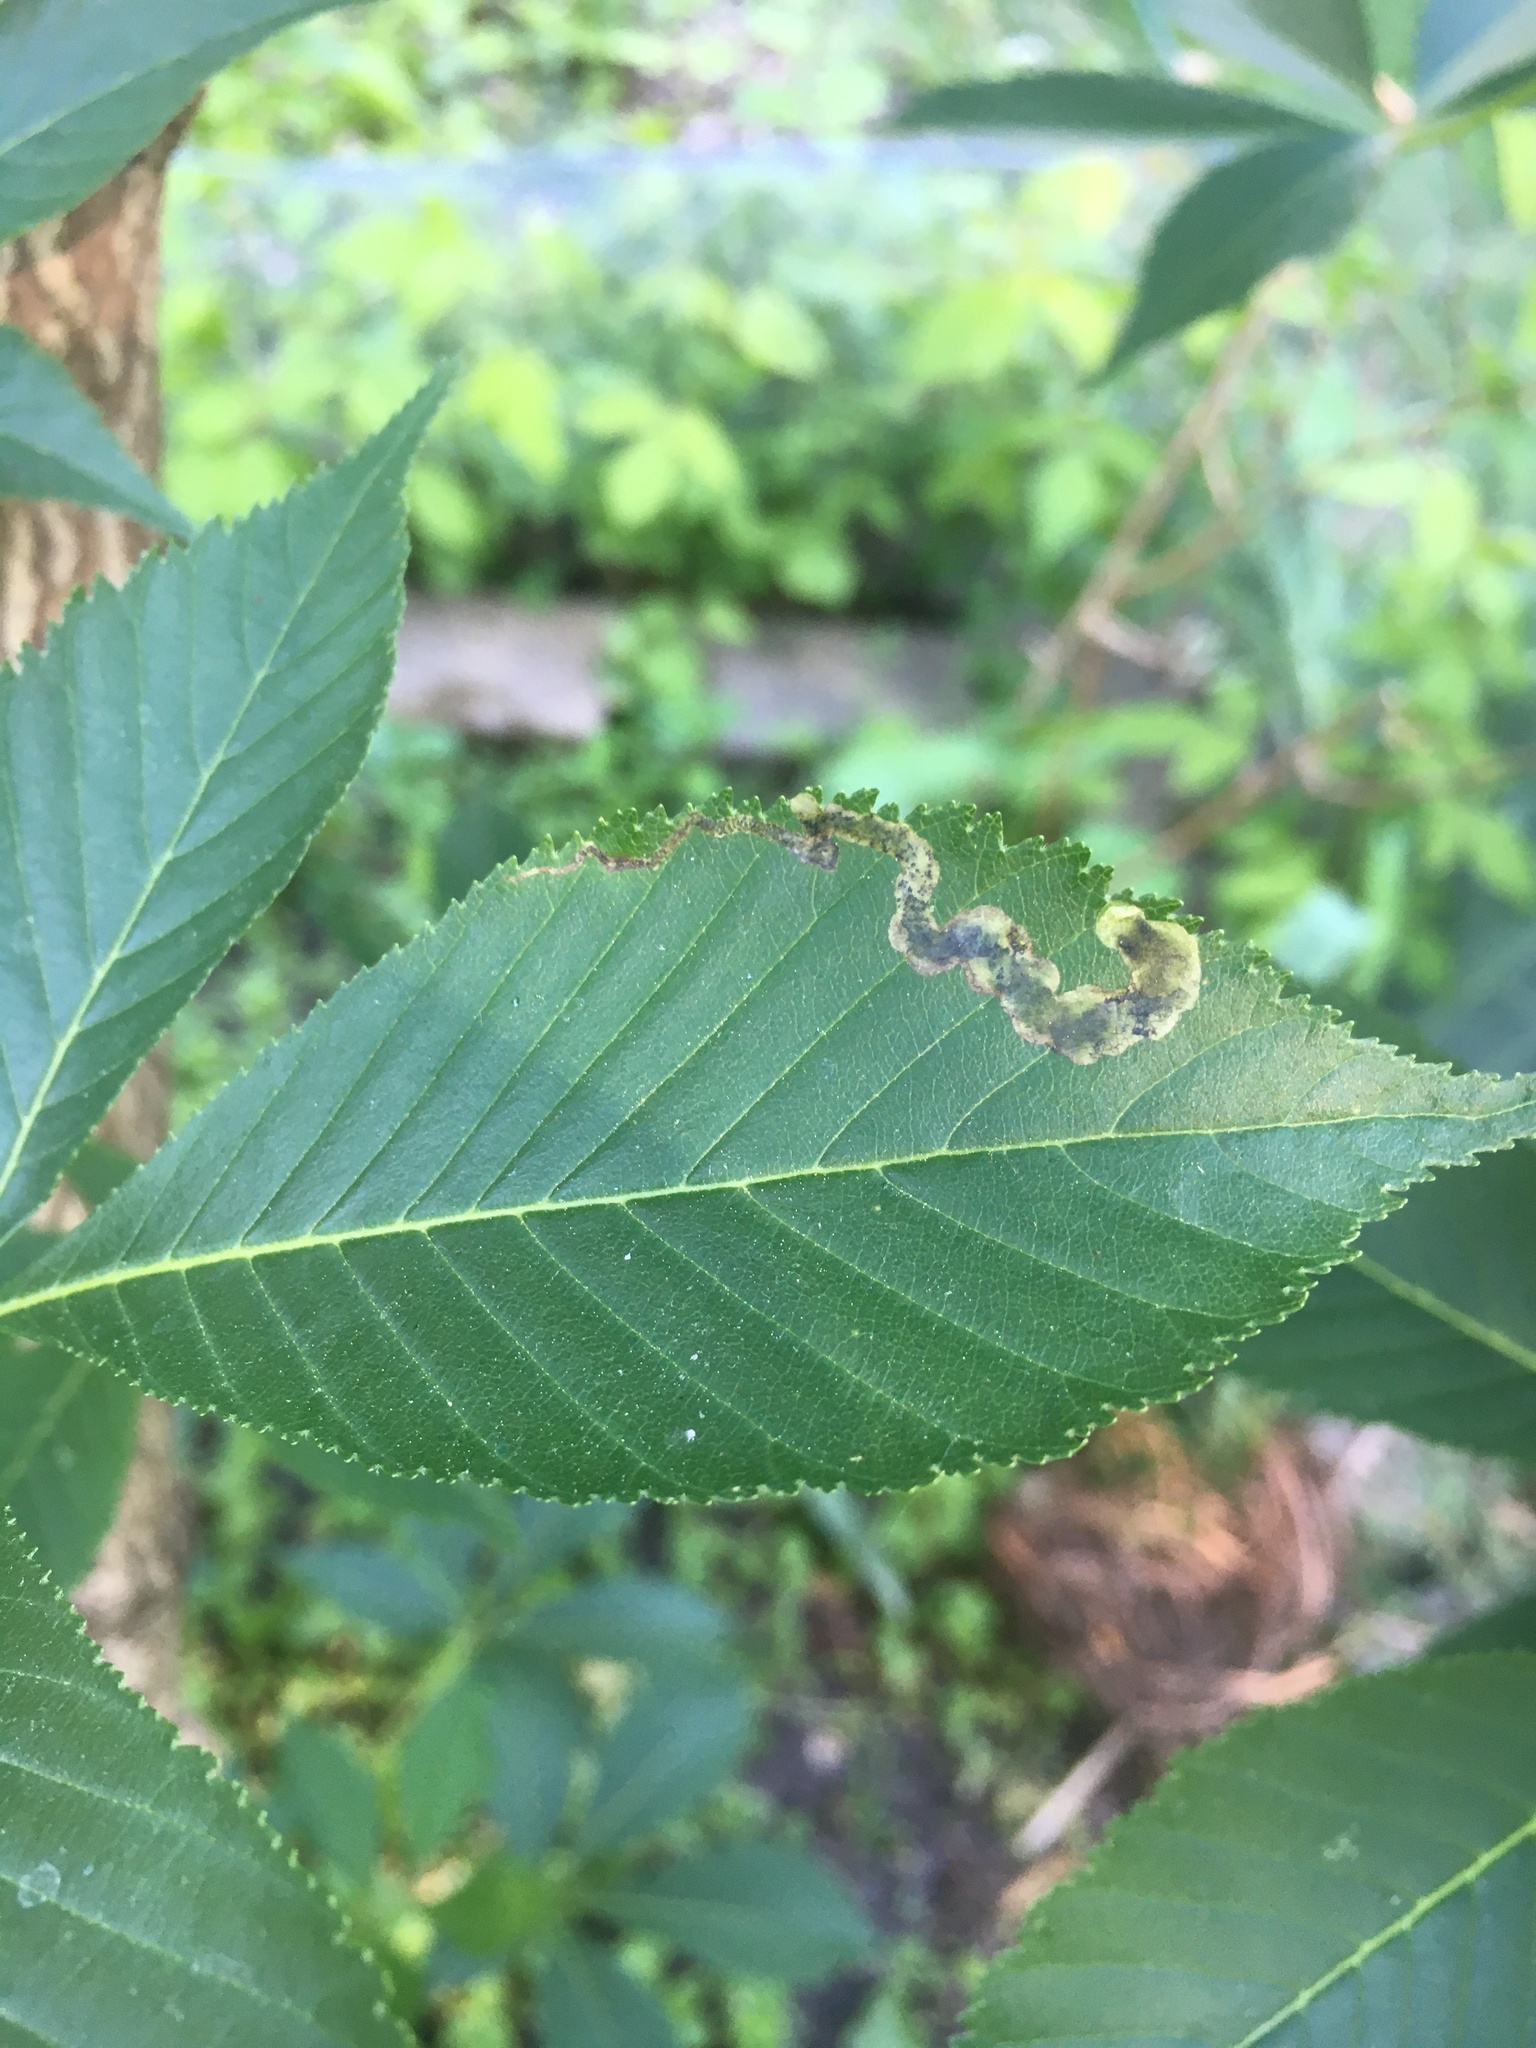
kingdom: Animalia
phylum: Arthropoda
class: Insecta
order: Diptera
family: Agromyzidae
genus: Phytomyza
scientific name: Phytomyza aesculi
